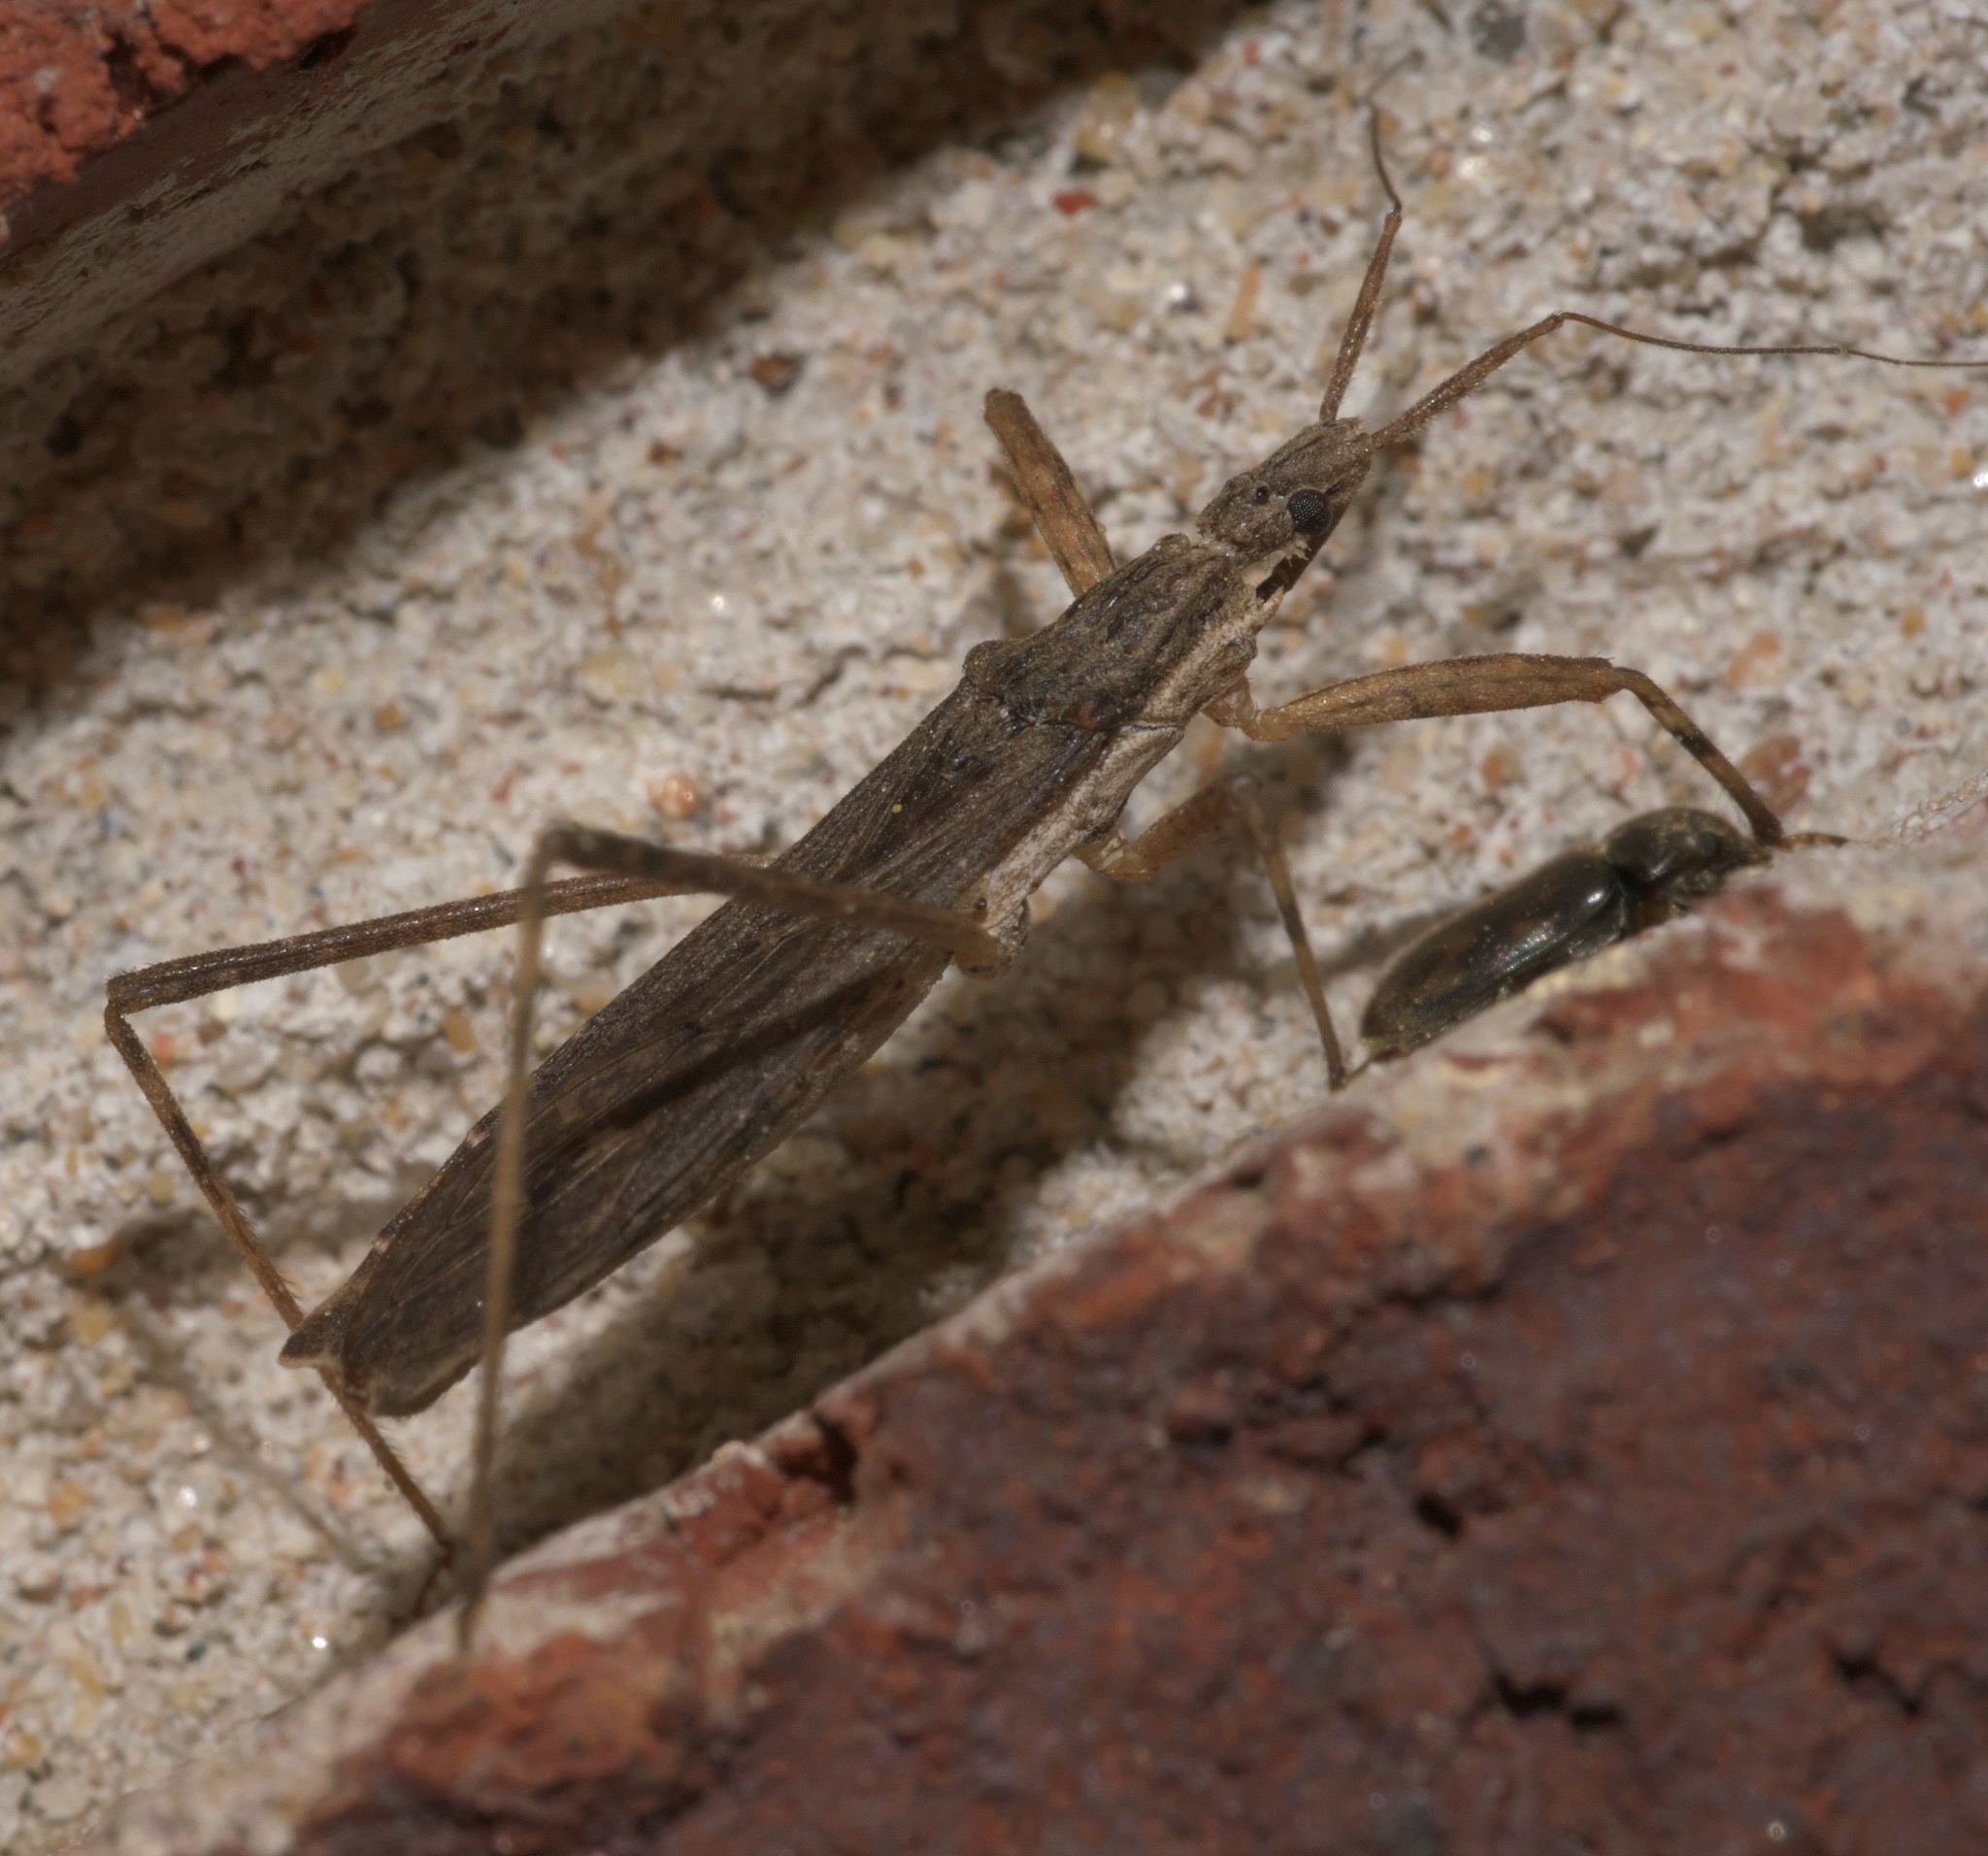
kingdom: Animalia
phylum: Arthropoda
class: Insecta
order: Hemiptera
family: Reduviidae
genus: Pygolampis
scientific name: Pygolampis pectoralis
